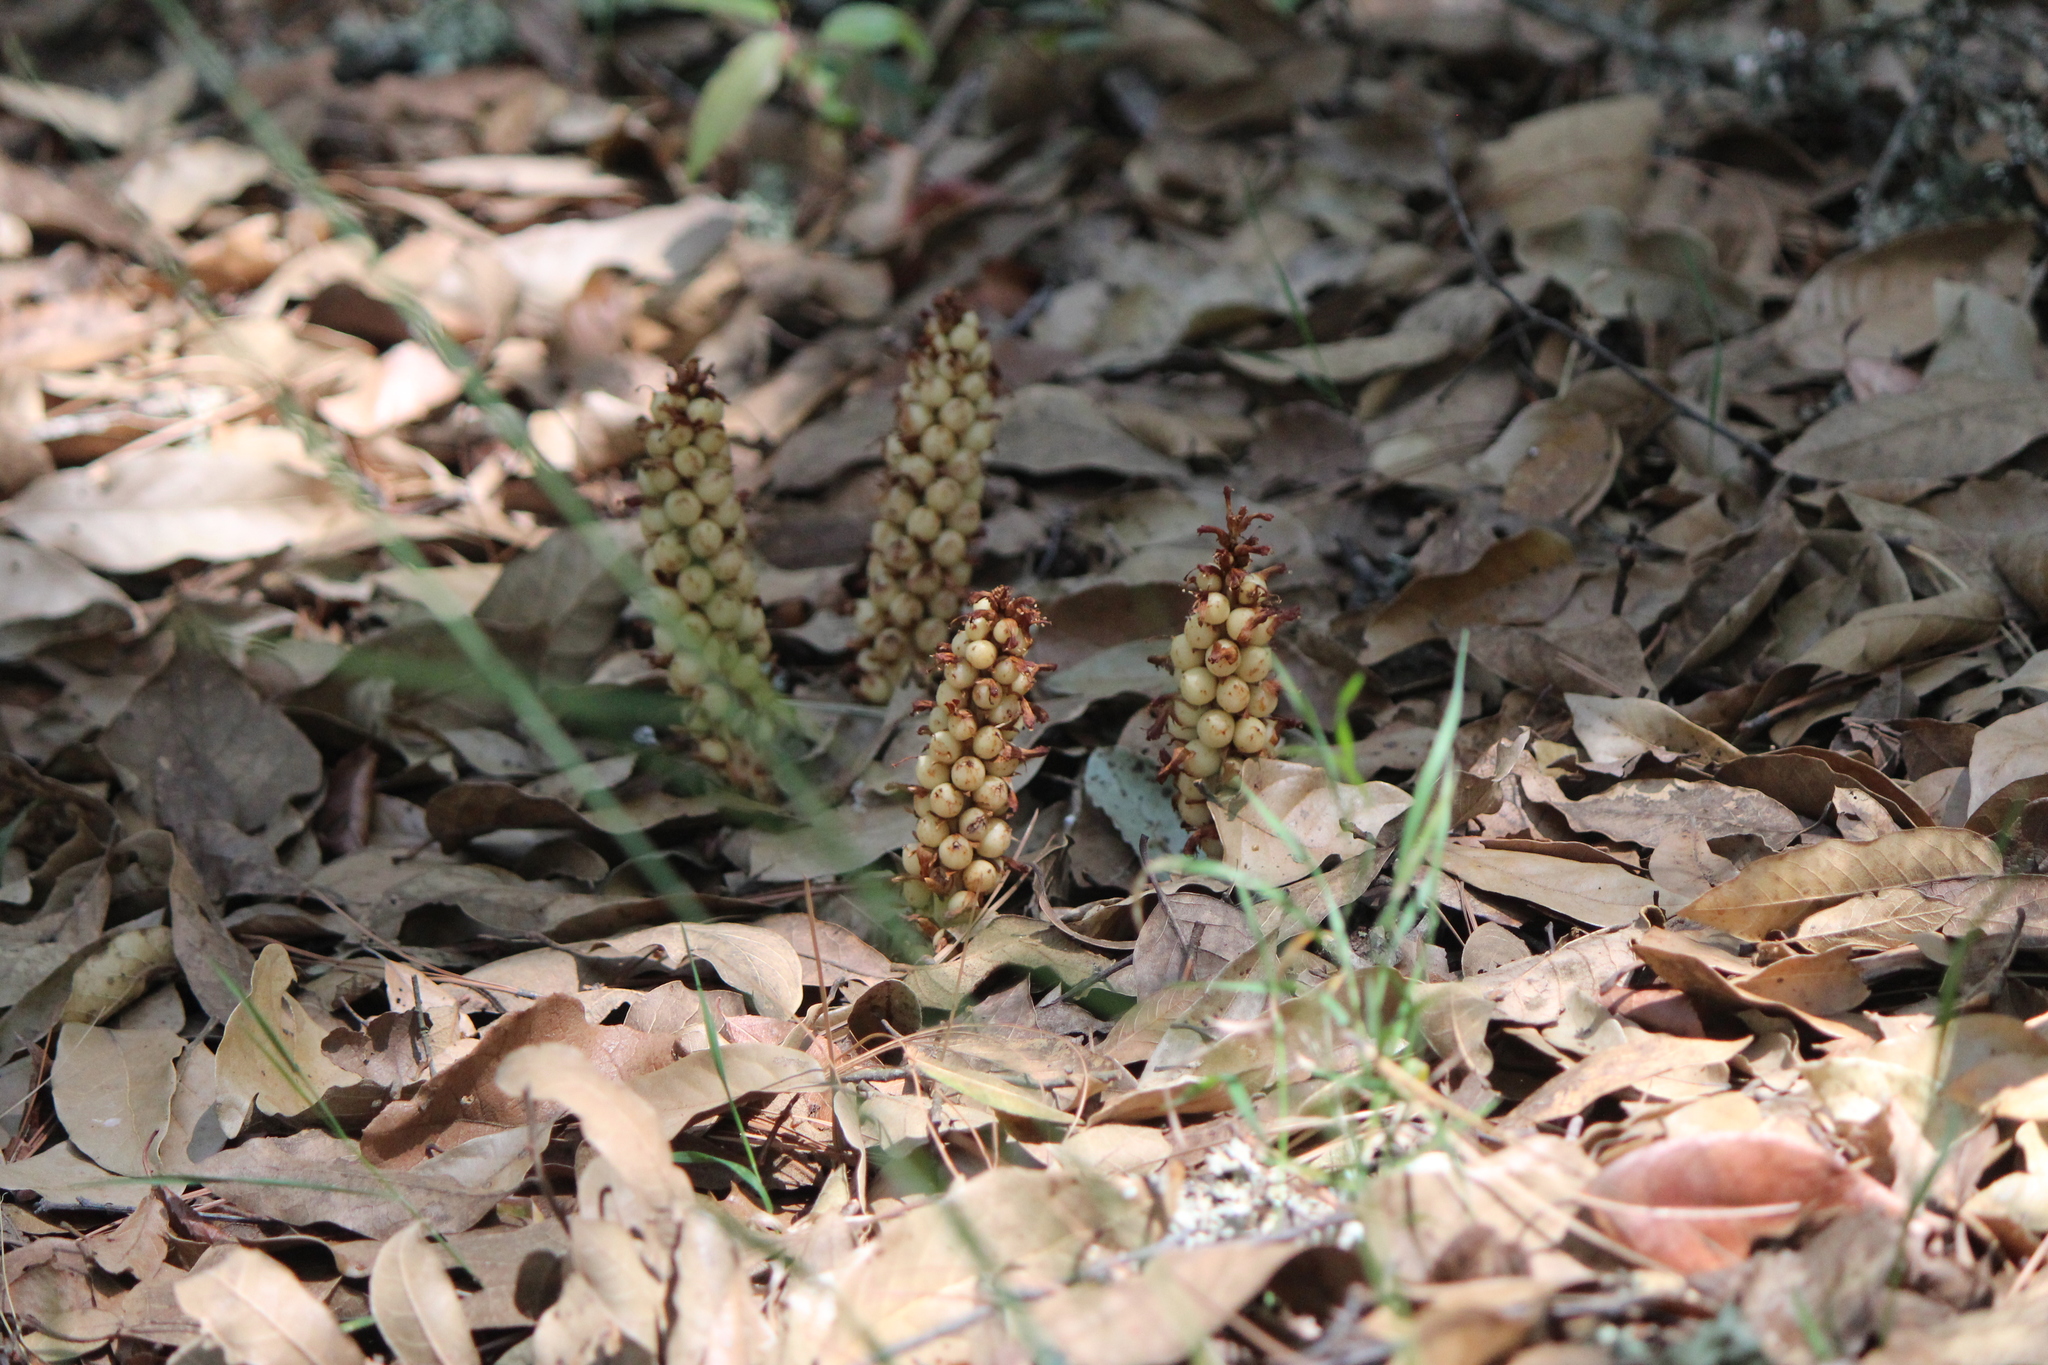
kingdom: Plantae
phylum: Tracheophyta
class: Magnoliopsida
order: Lamiales
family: Orobanchaceae
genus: Conopholis
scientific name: Conopholis alpina
